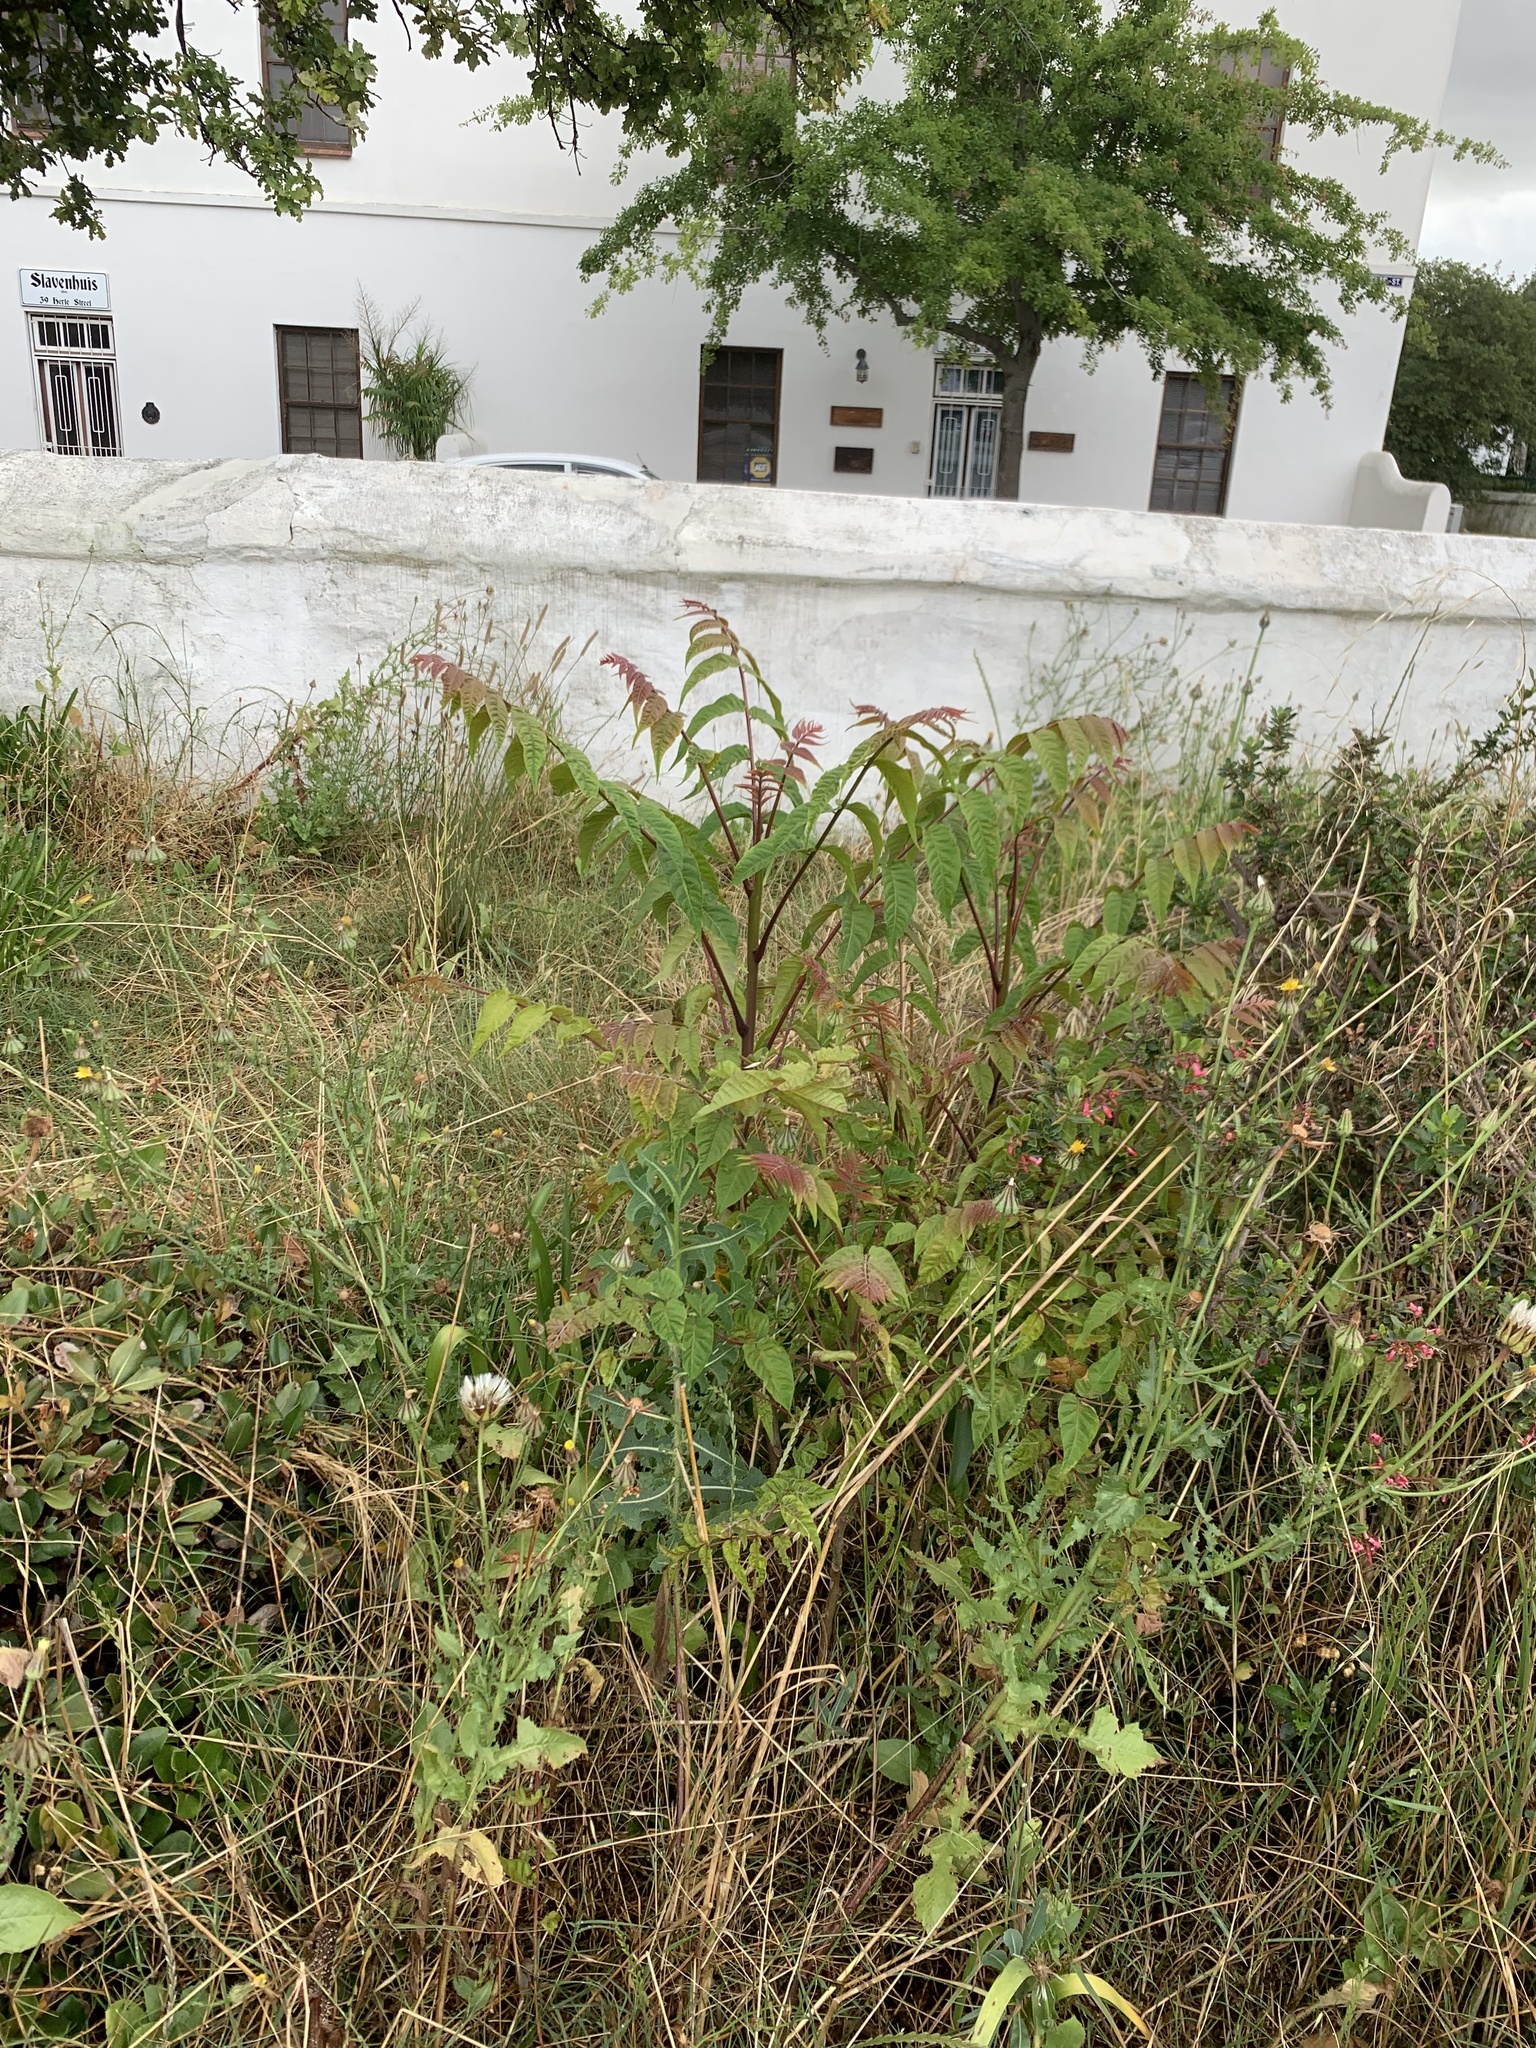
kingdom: Plantae
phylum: Tracheophyta
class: Magnoliopsida
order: Sapindales
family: Simaroubaceae
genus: Ailanthus
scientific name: Ailanthus altissima
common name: Tree-of-heaven
